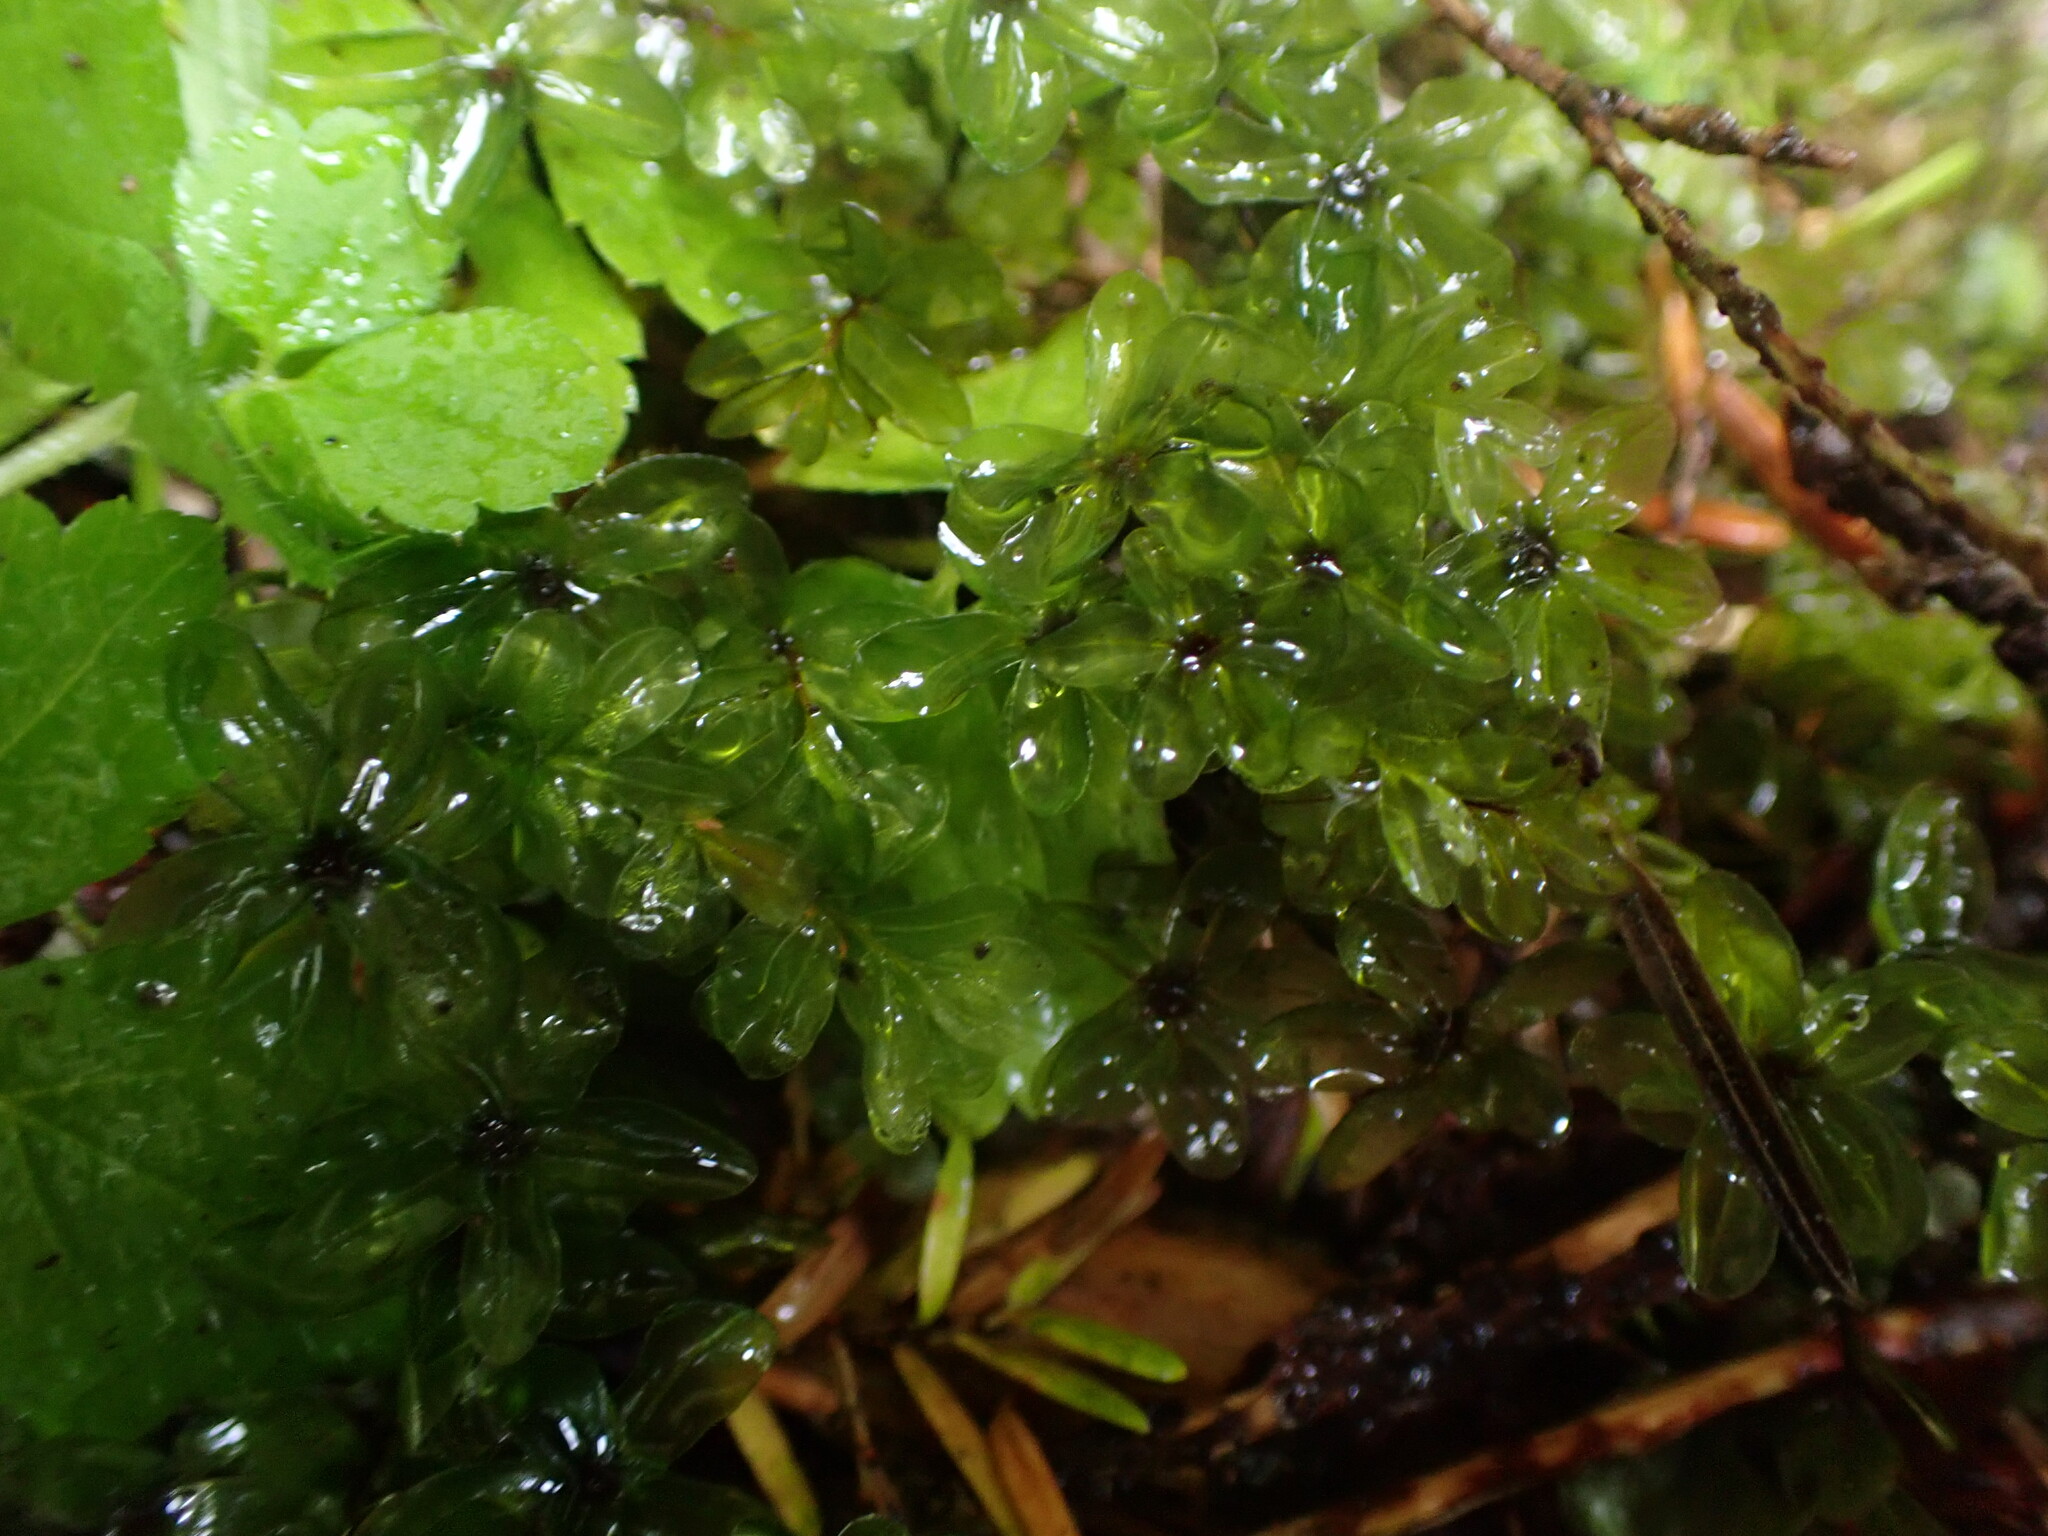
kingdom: Plantae
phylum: Bryophyta
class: Bryopsida
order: Bryales
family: Mniaceae
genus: Rhizomnium
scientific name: Rhizomnium glabrescens
